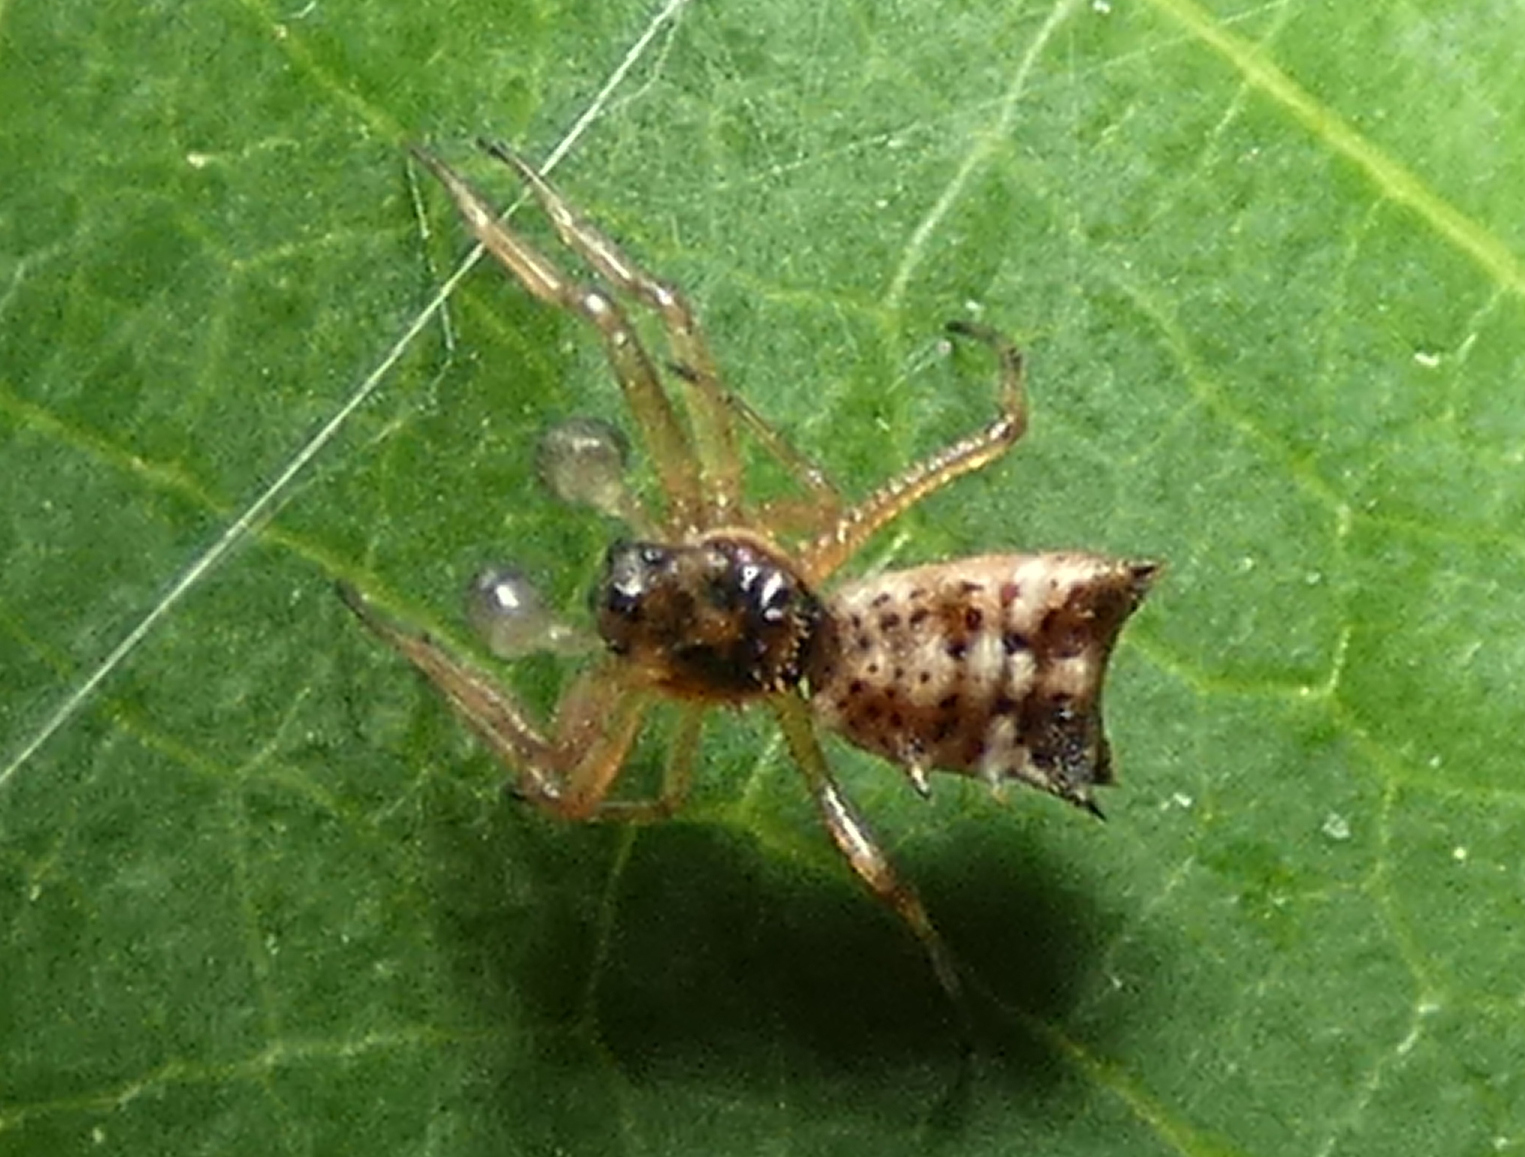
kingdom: Animalia
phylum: Arthropoda
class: Arachnida
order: Araneae
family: Araneidae
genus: Micrathena
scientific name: Micrathena picta
